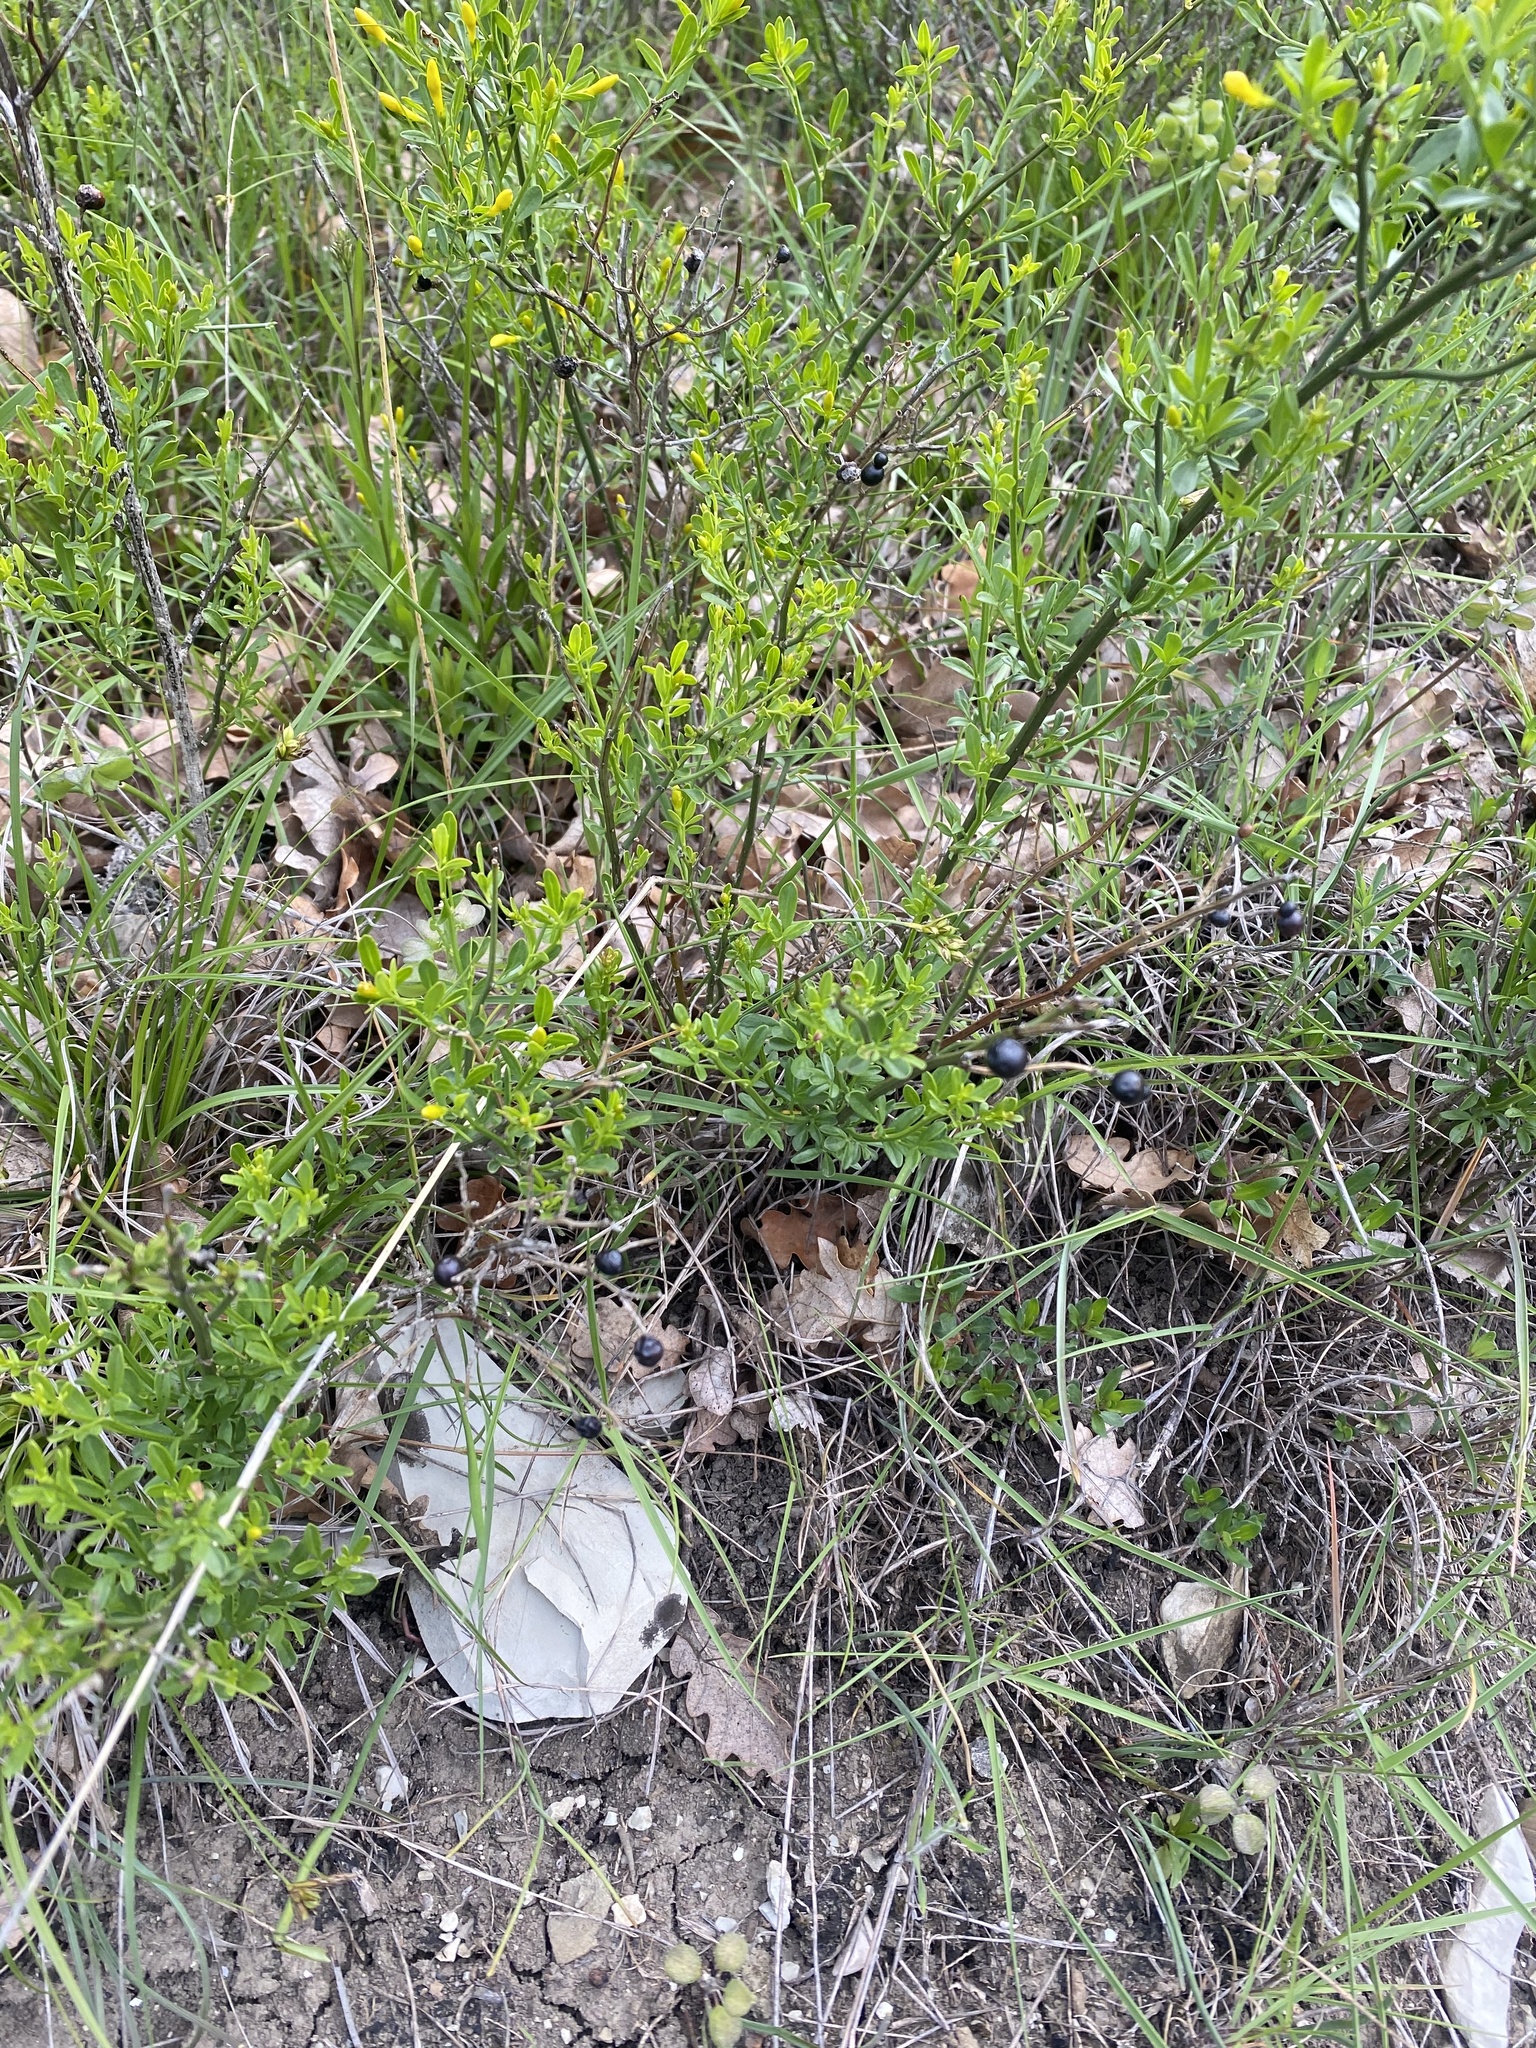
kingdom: Plantae
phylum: Tracheophyta
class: Magnoliopsida
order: Lamiales
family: Oleaceae
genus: Chrysojasminum
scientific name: Chrysojasminum fruticans
